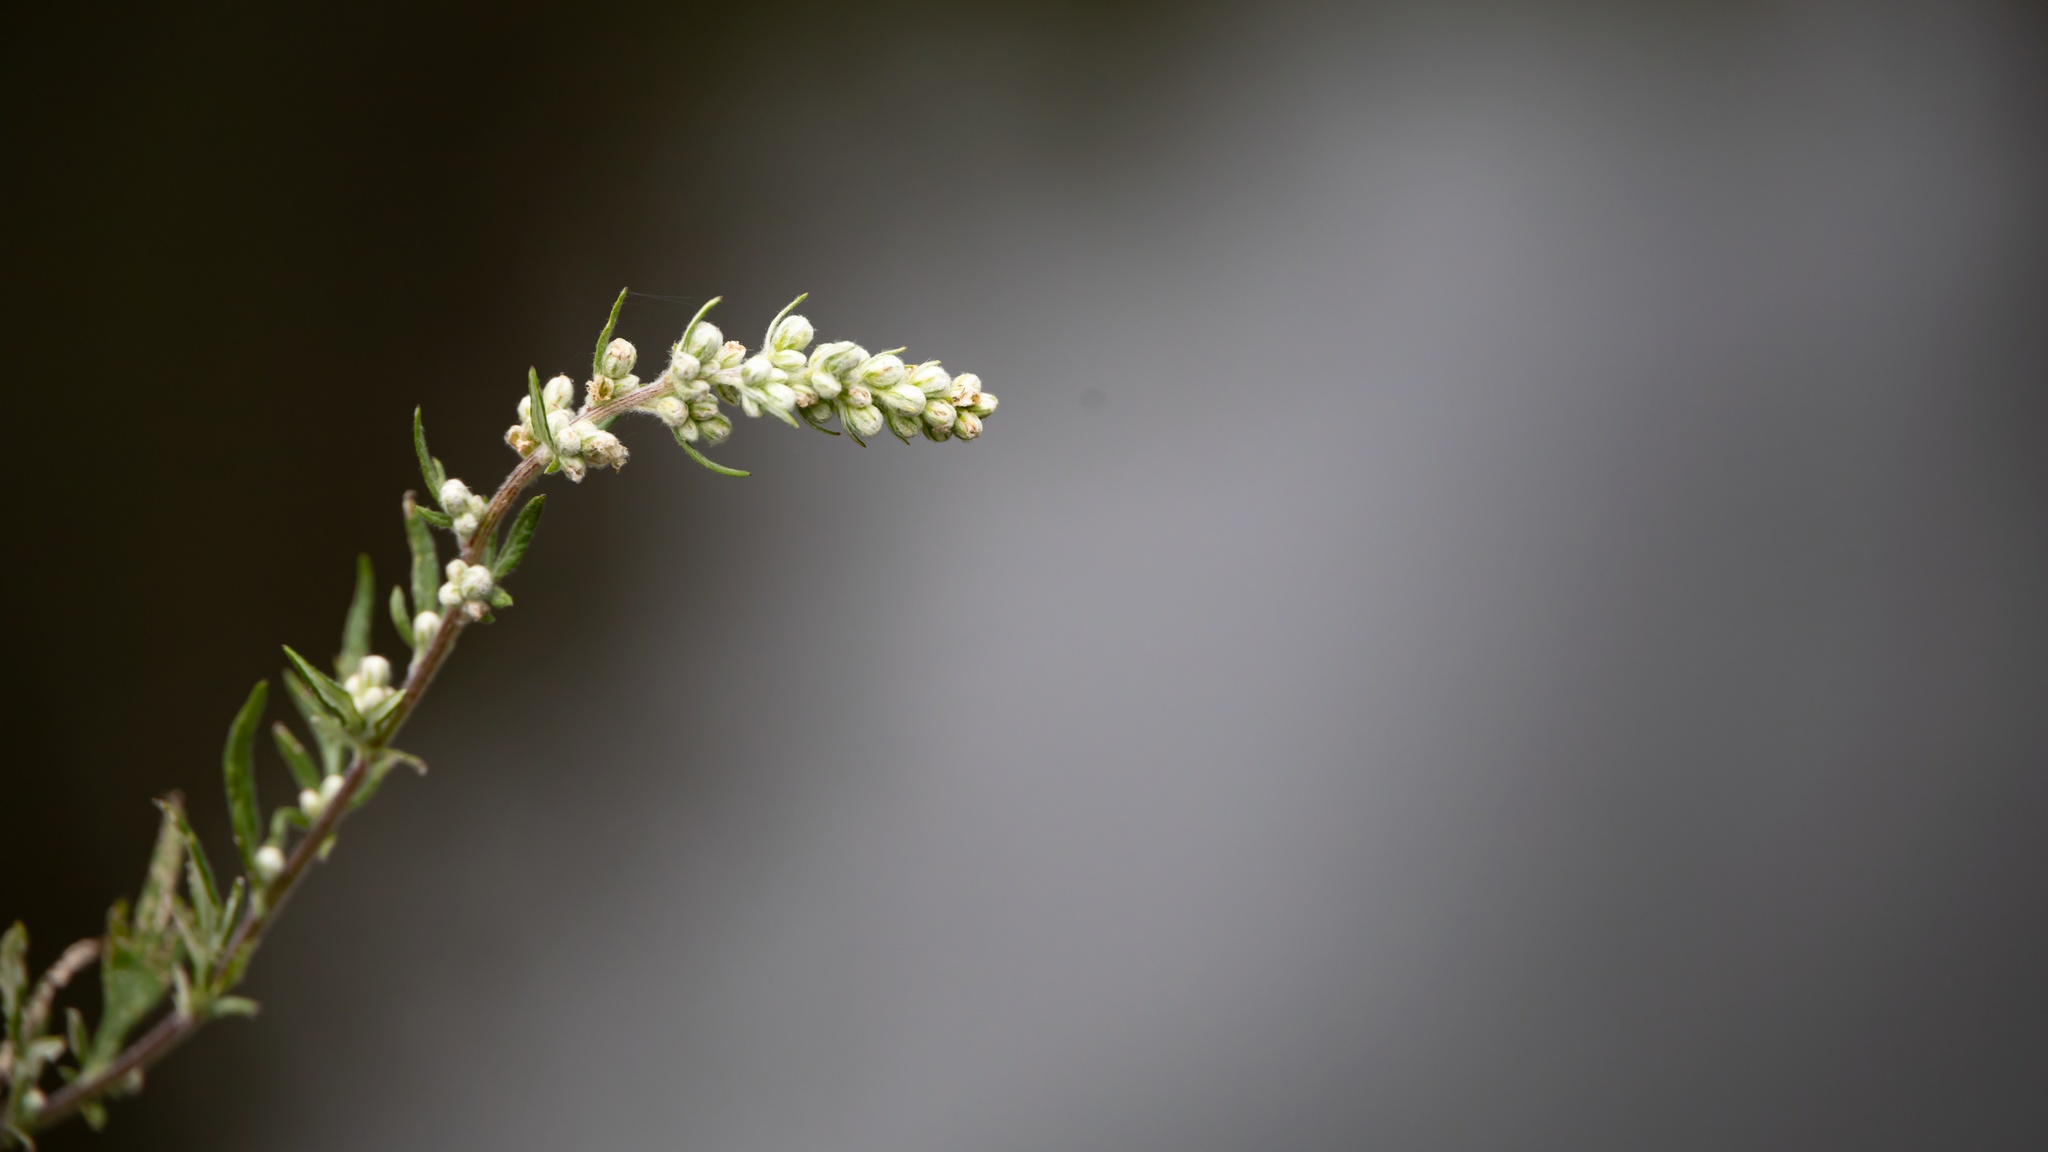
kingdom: Plantae
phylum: Tracheophyta
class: Magnoliopsida
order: Asterales
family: Asteraceae
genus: Artemisia
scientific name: Artemisia vulgaris
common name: Mugwort
